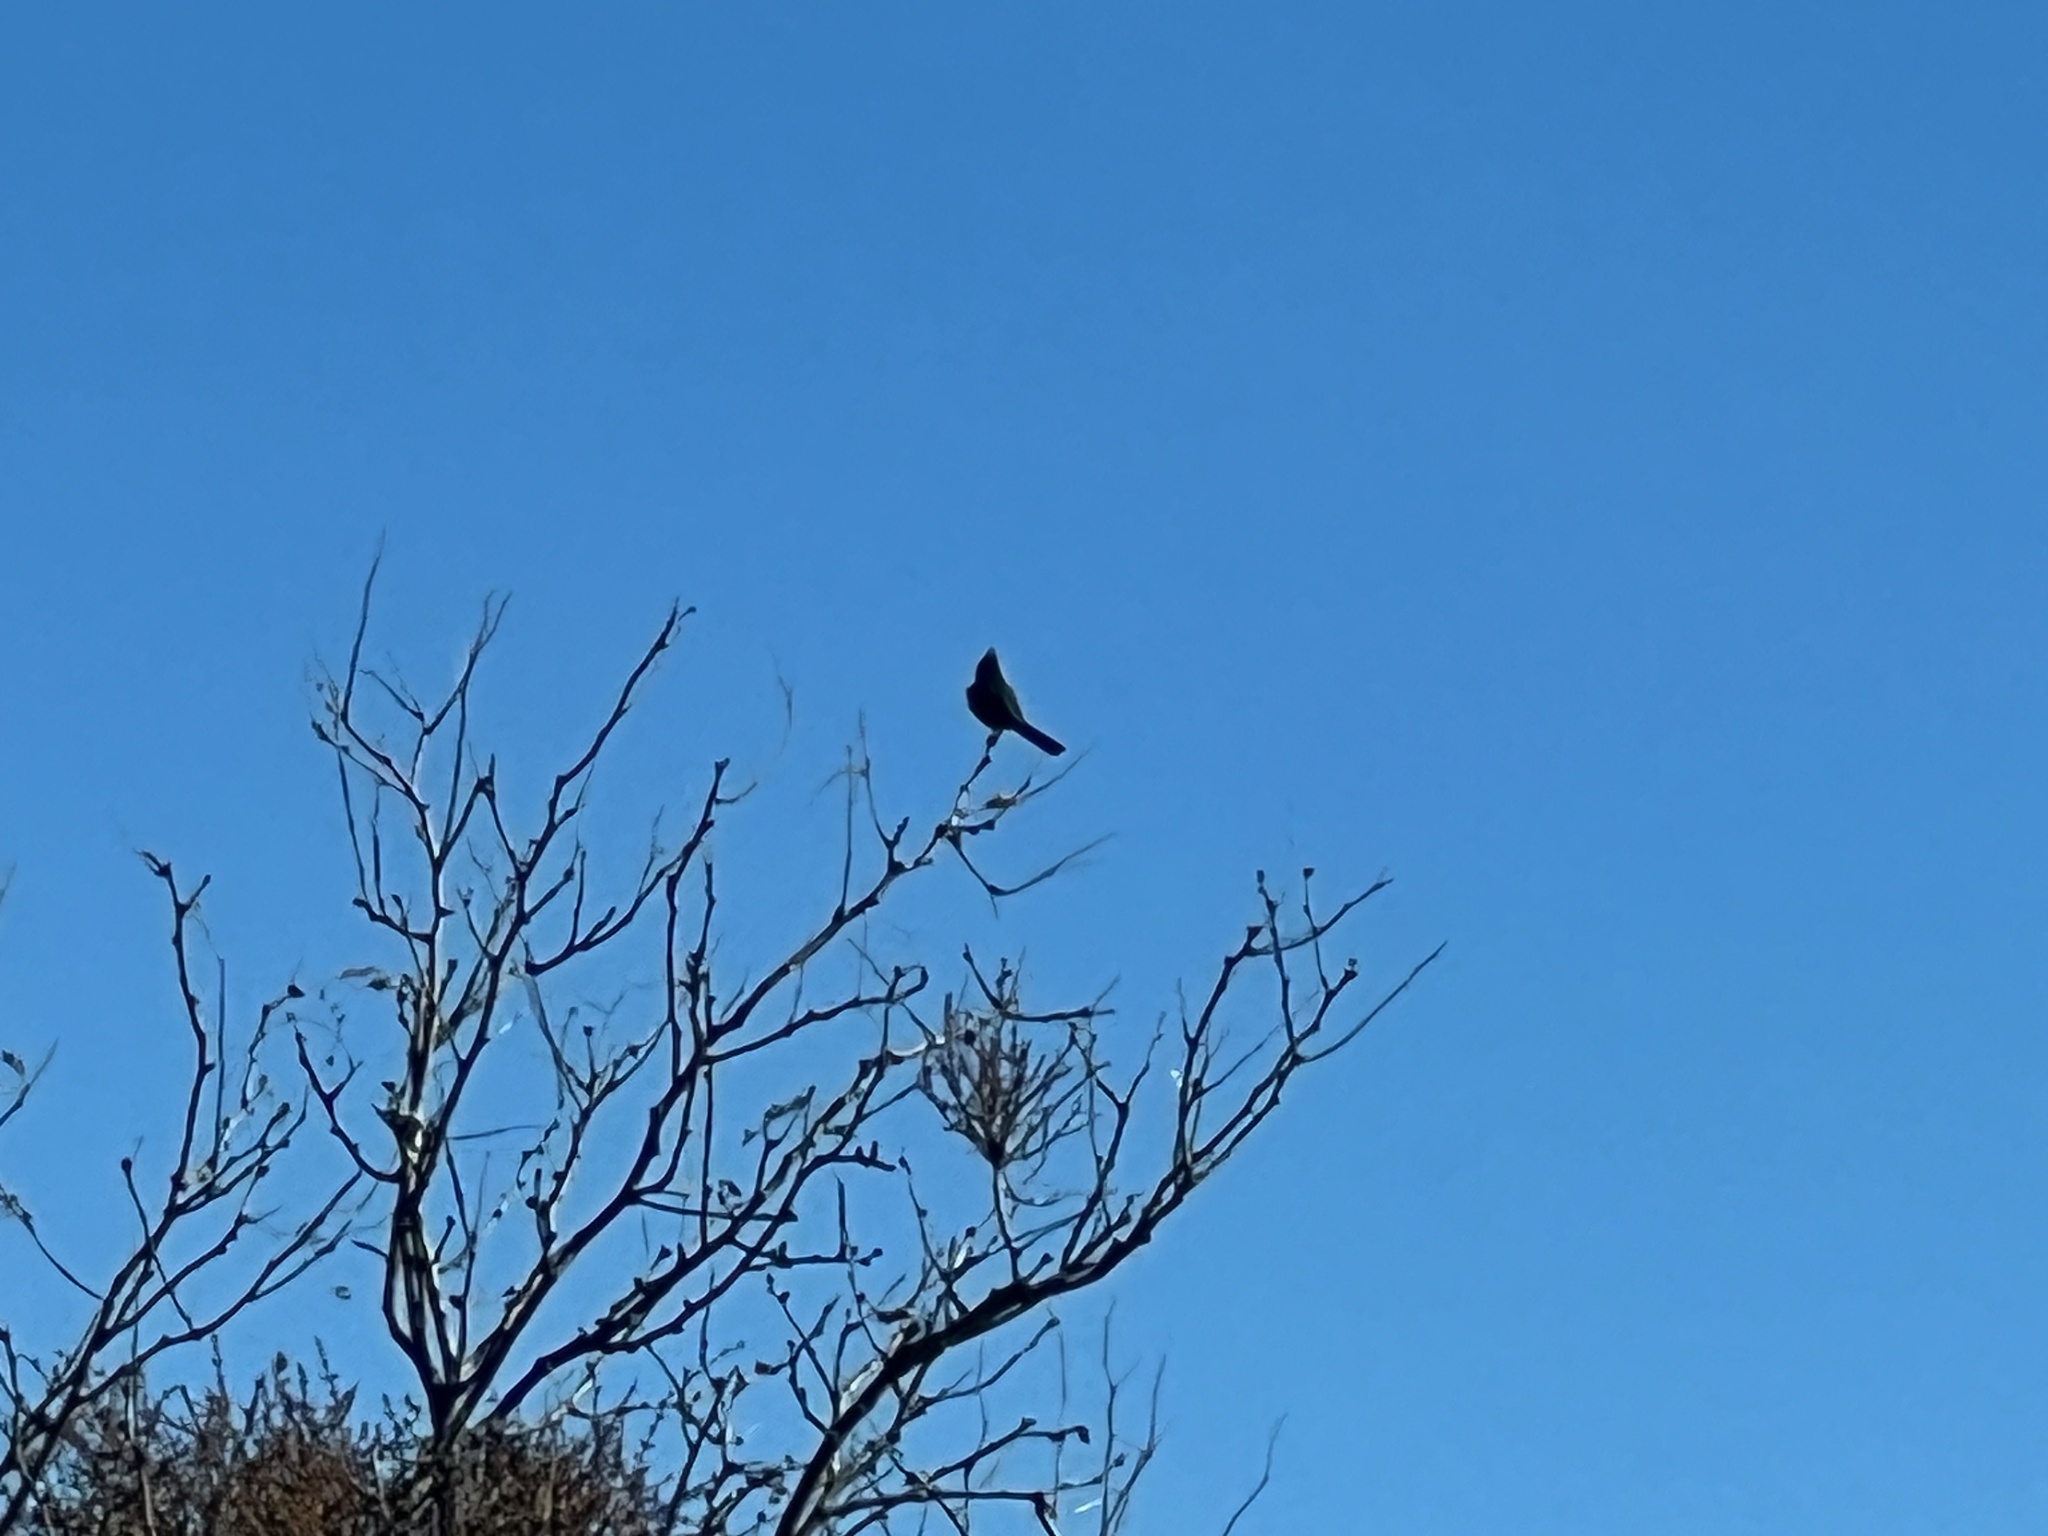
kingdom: Animalia
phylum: Chordata
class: Aves
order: Passeriformes
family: Ptilogonatidae
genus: Phainopepla
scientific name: Phainopepla nitens
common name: Phainopepla
